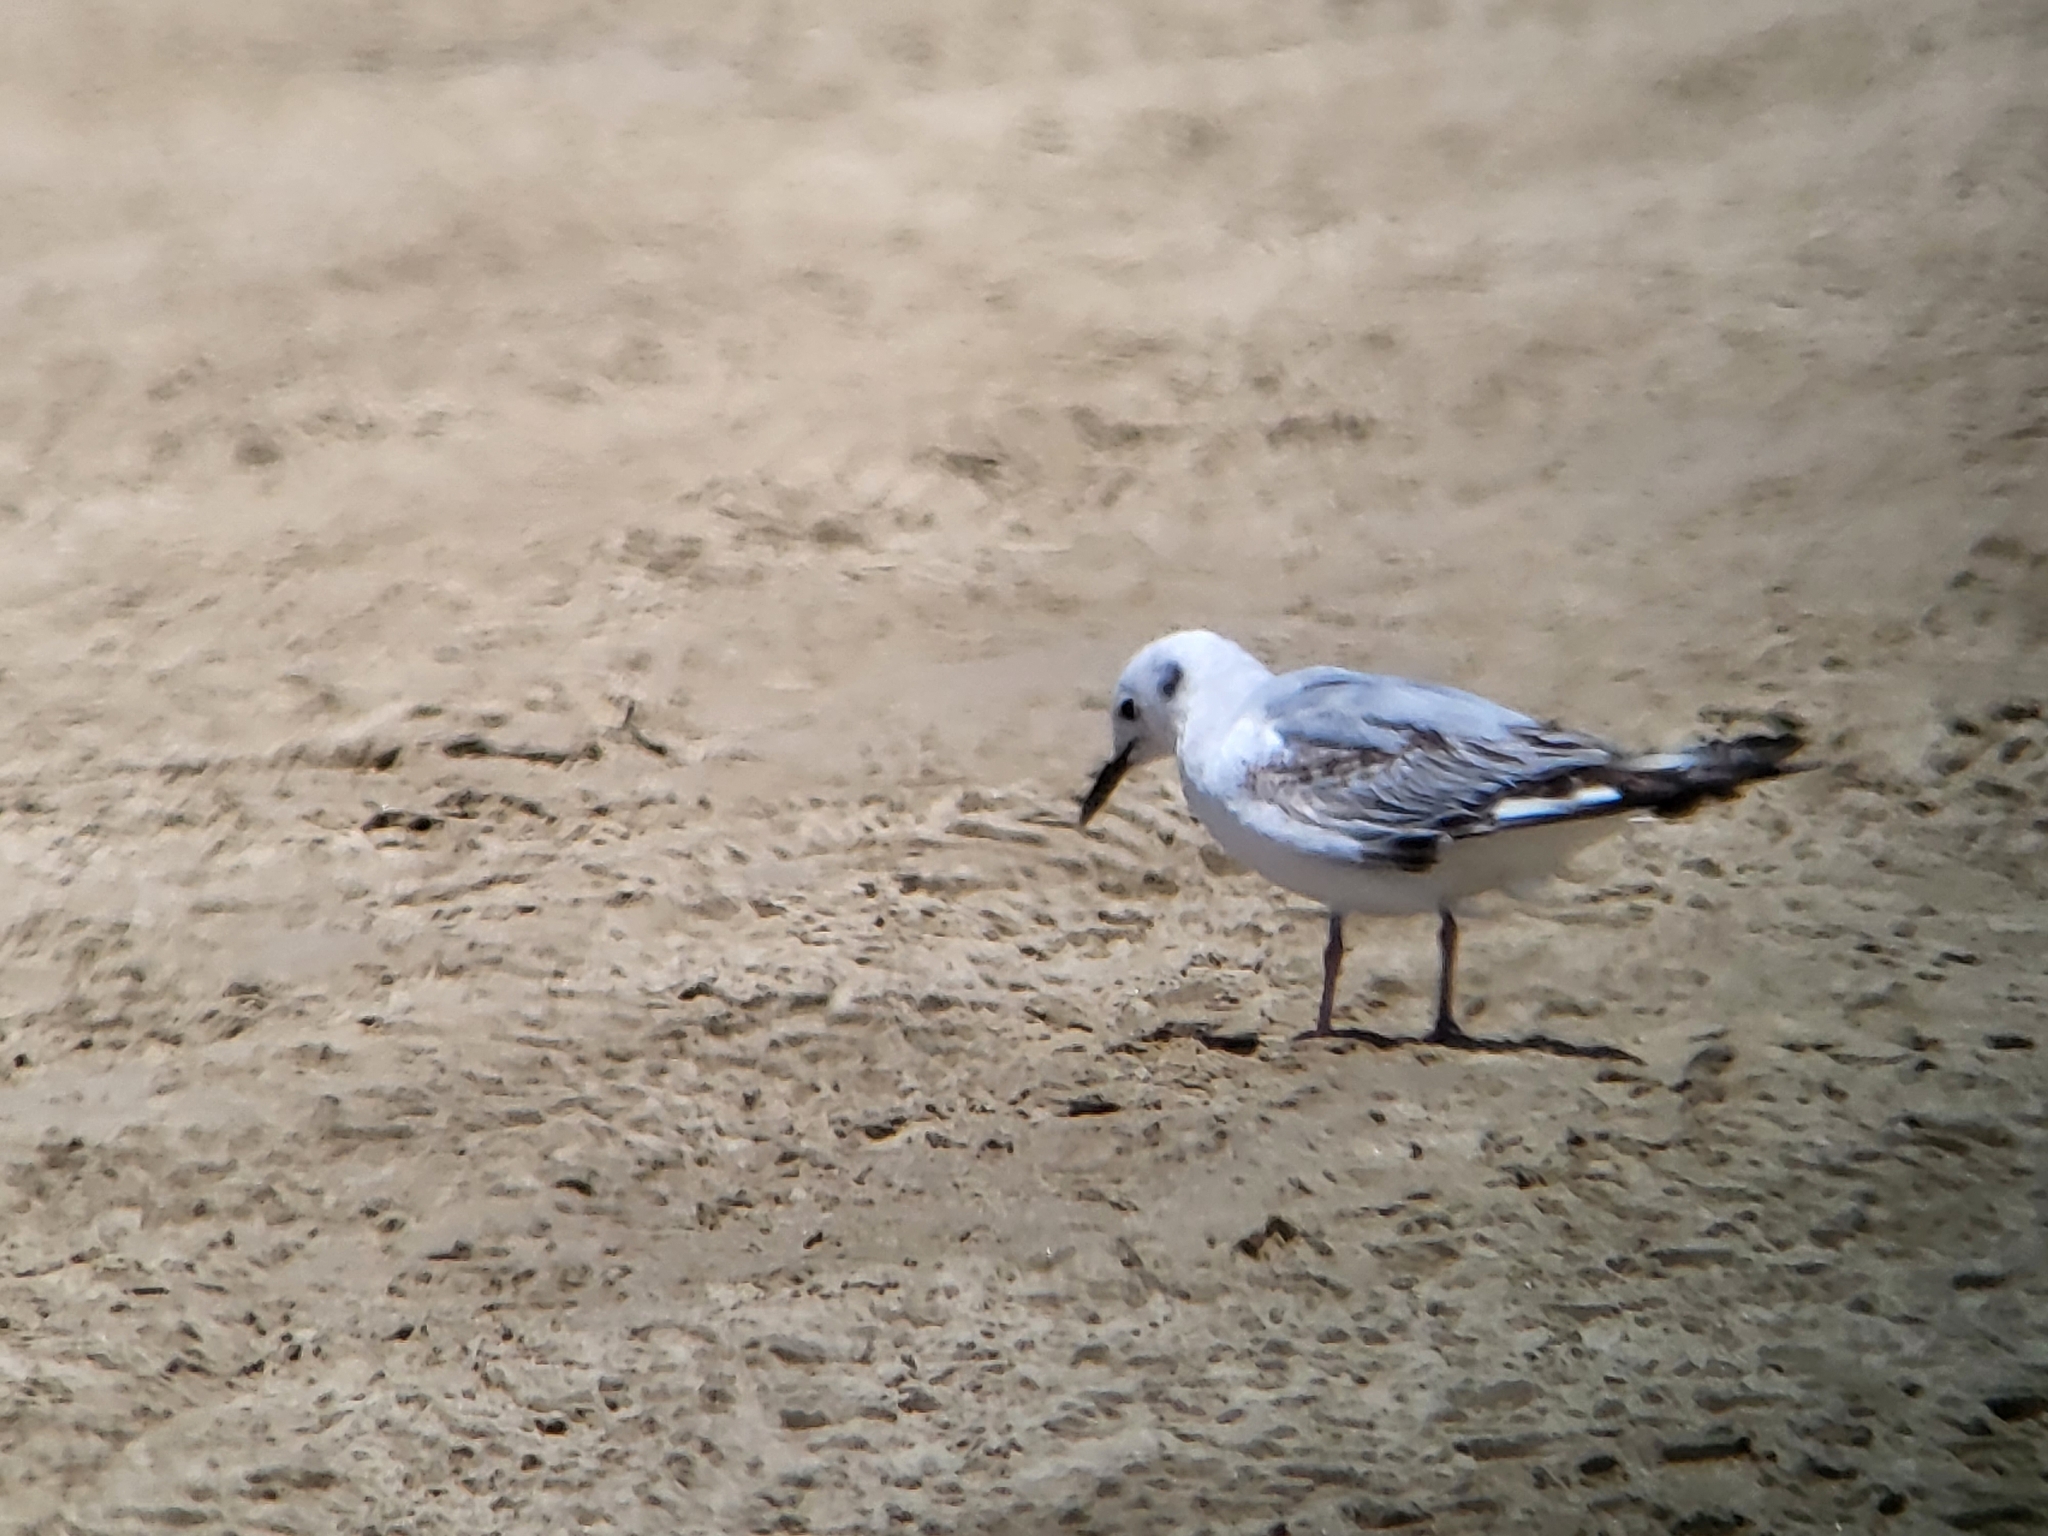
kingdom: Animalia
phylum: Chordata
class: Aves
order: Charadriiformes
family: Laridae
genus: Chroicocephalus
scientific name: Chroicocephalus philadelphia
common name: Bonaparte's gull
